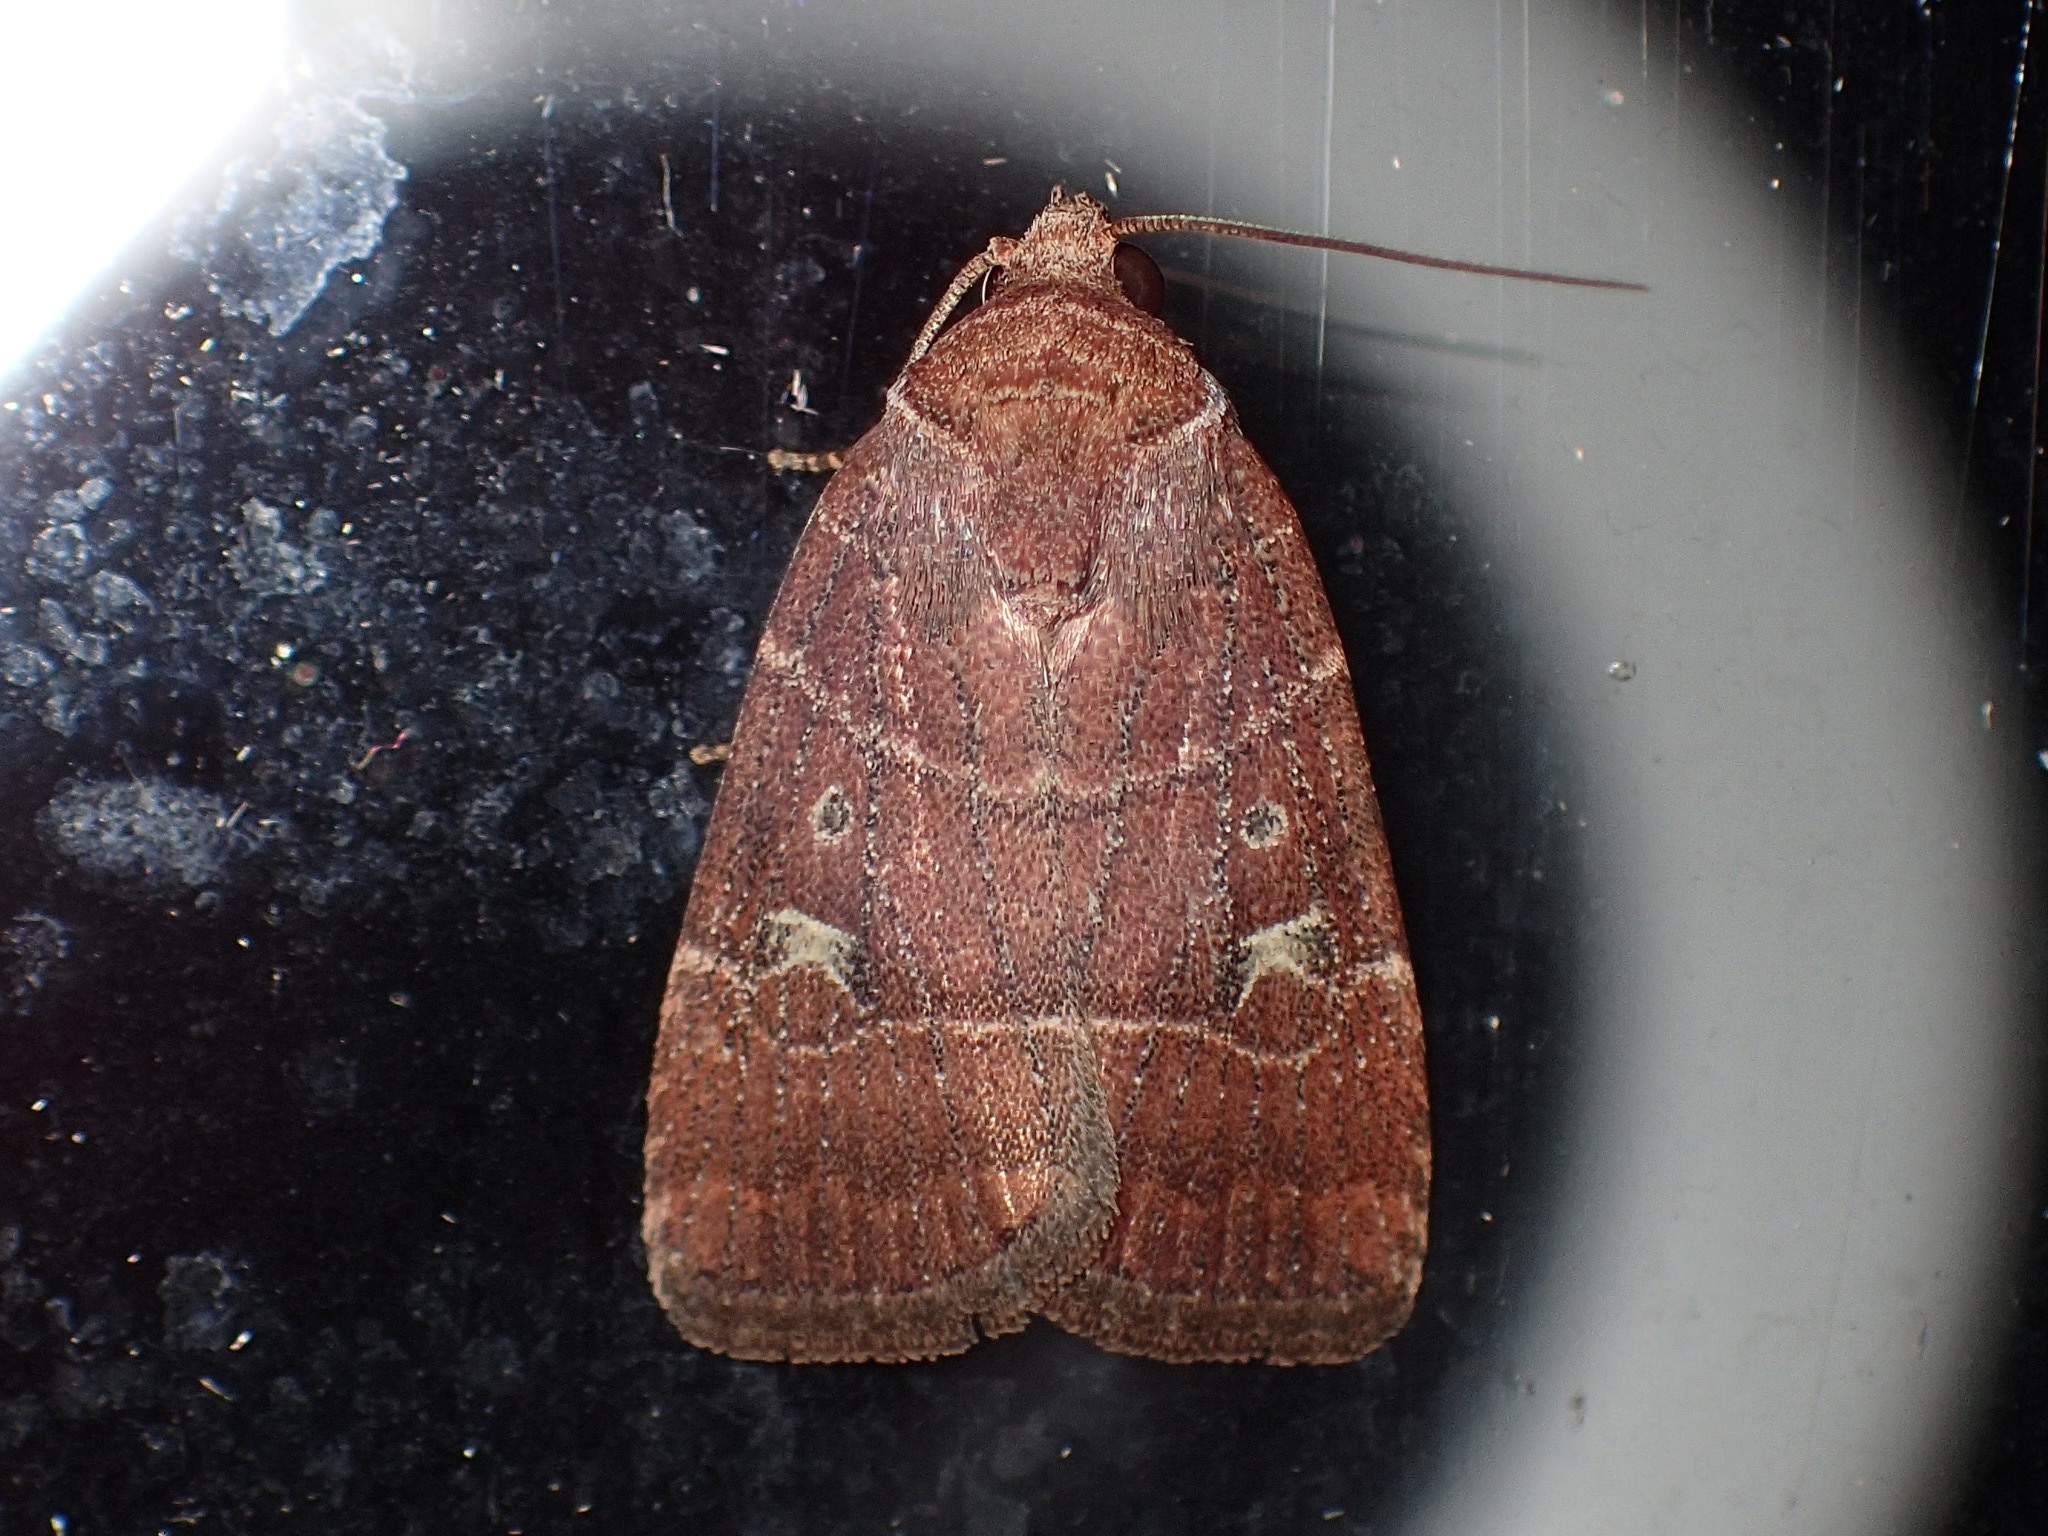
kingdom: Animalia
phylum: Arthropoda
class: Insecta
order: Lepidoptera
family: Noctuidae
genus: Elaphria
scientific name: Elaphria grata
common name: Grateful midget moth
